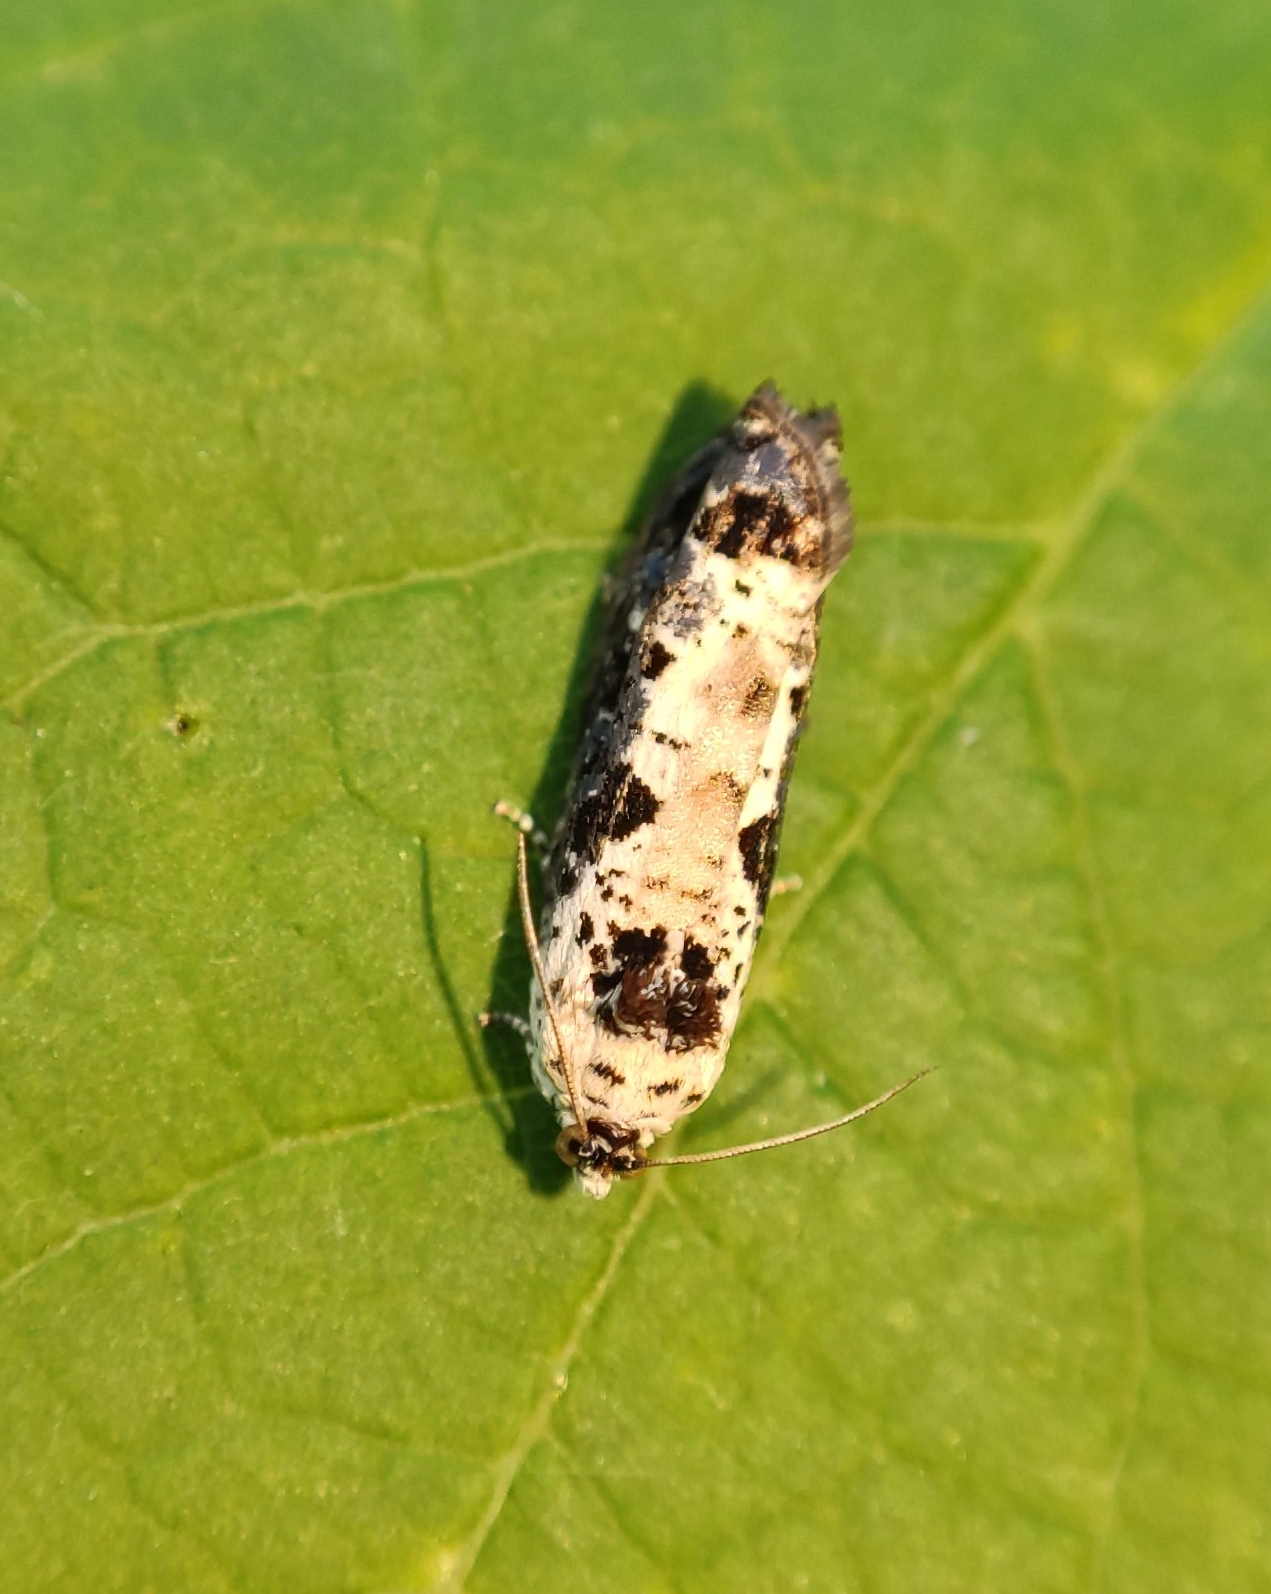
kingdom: Animalia
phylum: Arthropoda
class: Insecta
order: Lepidoptera
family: Tortricidae
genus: Hedya
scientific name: Hedya salicella
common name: Large tortricid moth
